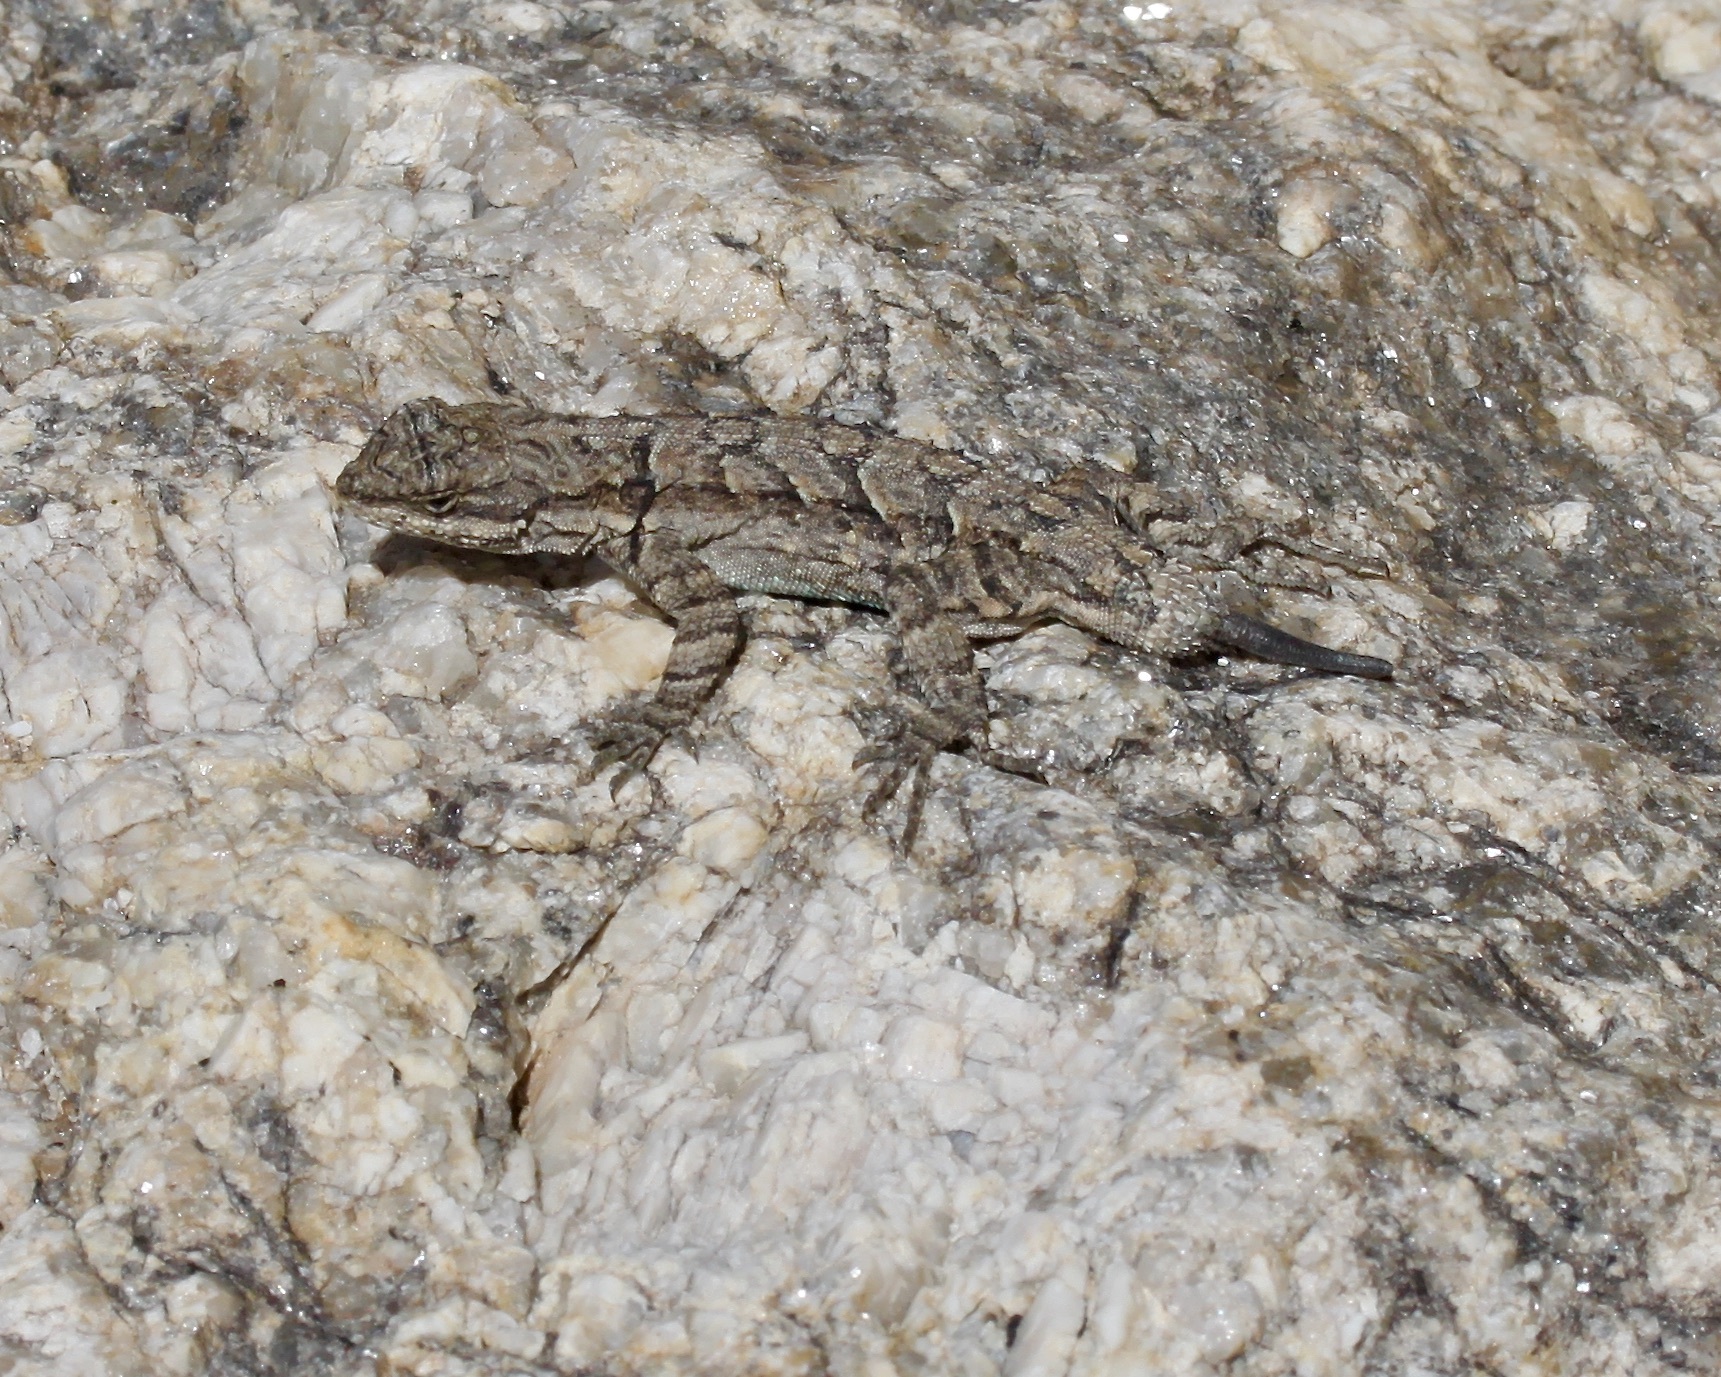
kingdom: Animalia
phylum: Chordata
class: Squamata
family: Phrynosomatidae
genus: Urosaurus
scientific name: Urosaurus ornatus
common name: Ornate tree lizard
